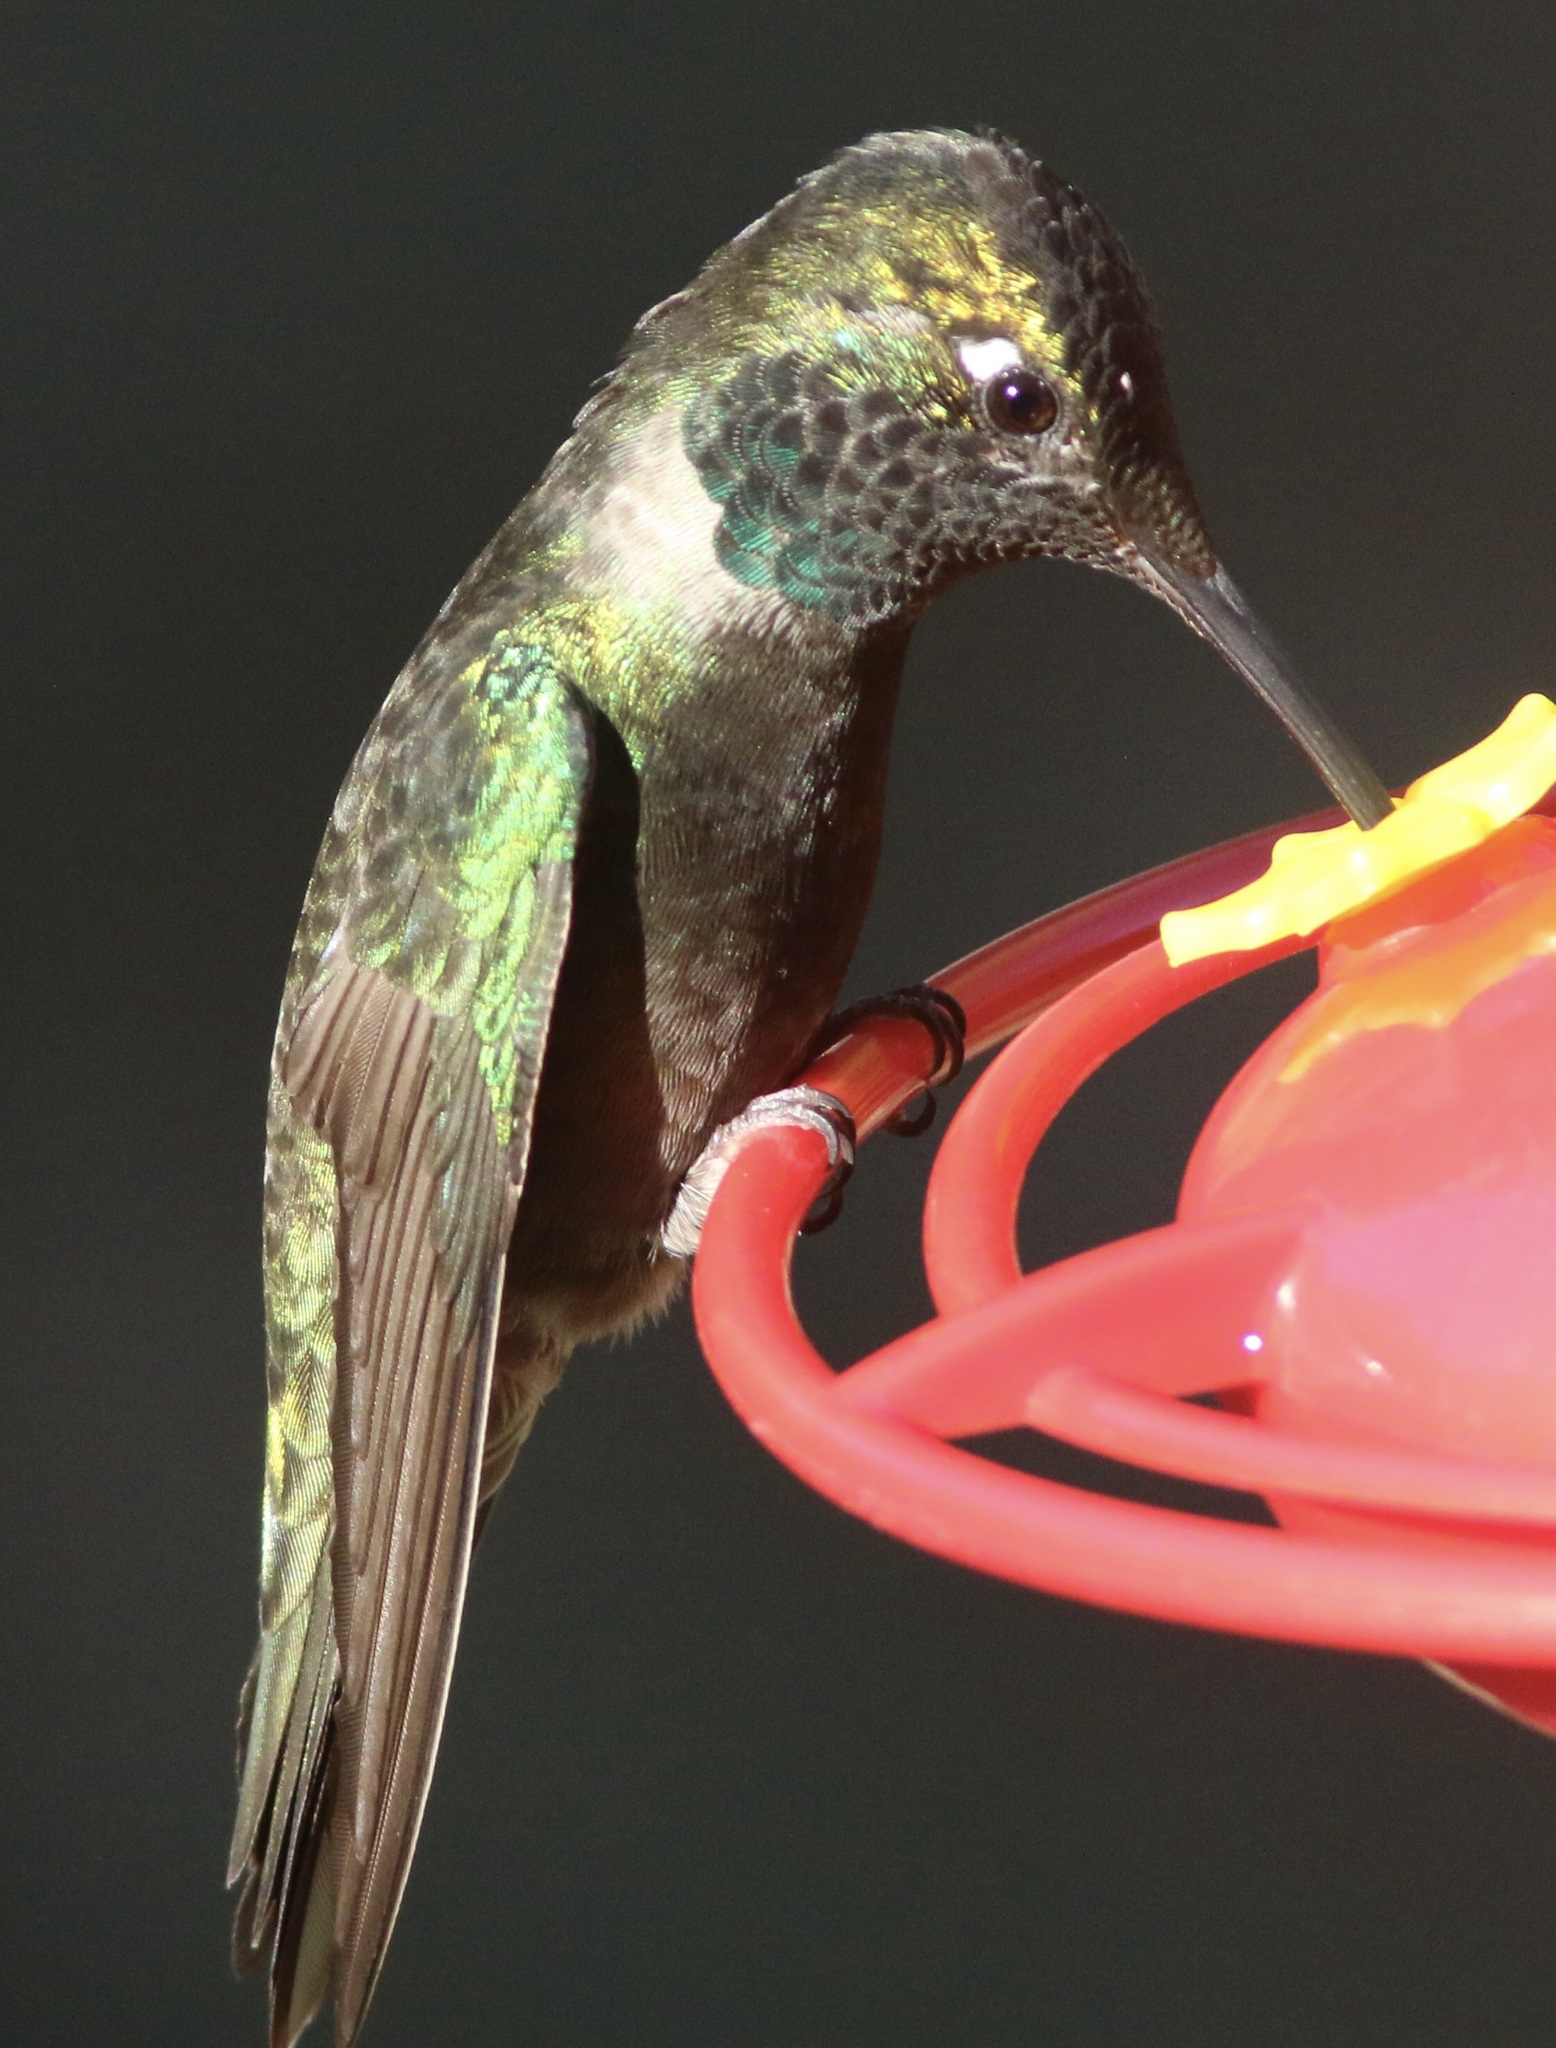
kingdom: Animalia
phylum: Chordata
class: Aves
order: Apodiformes
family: Trochilidae
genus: Eugenes
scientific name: Eugenes fulgens
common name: Magnificent hummingbird
